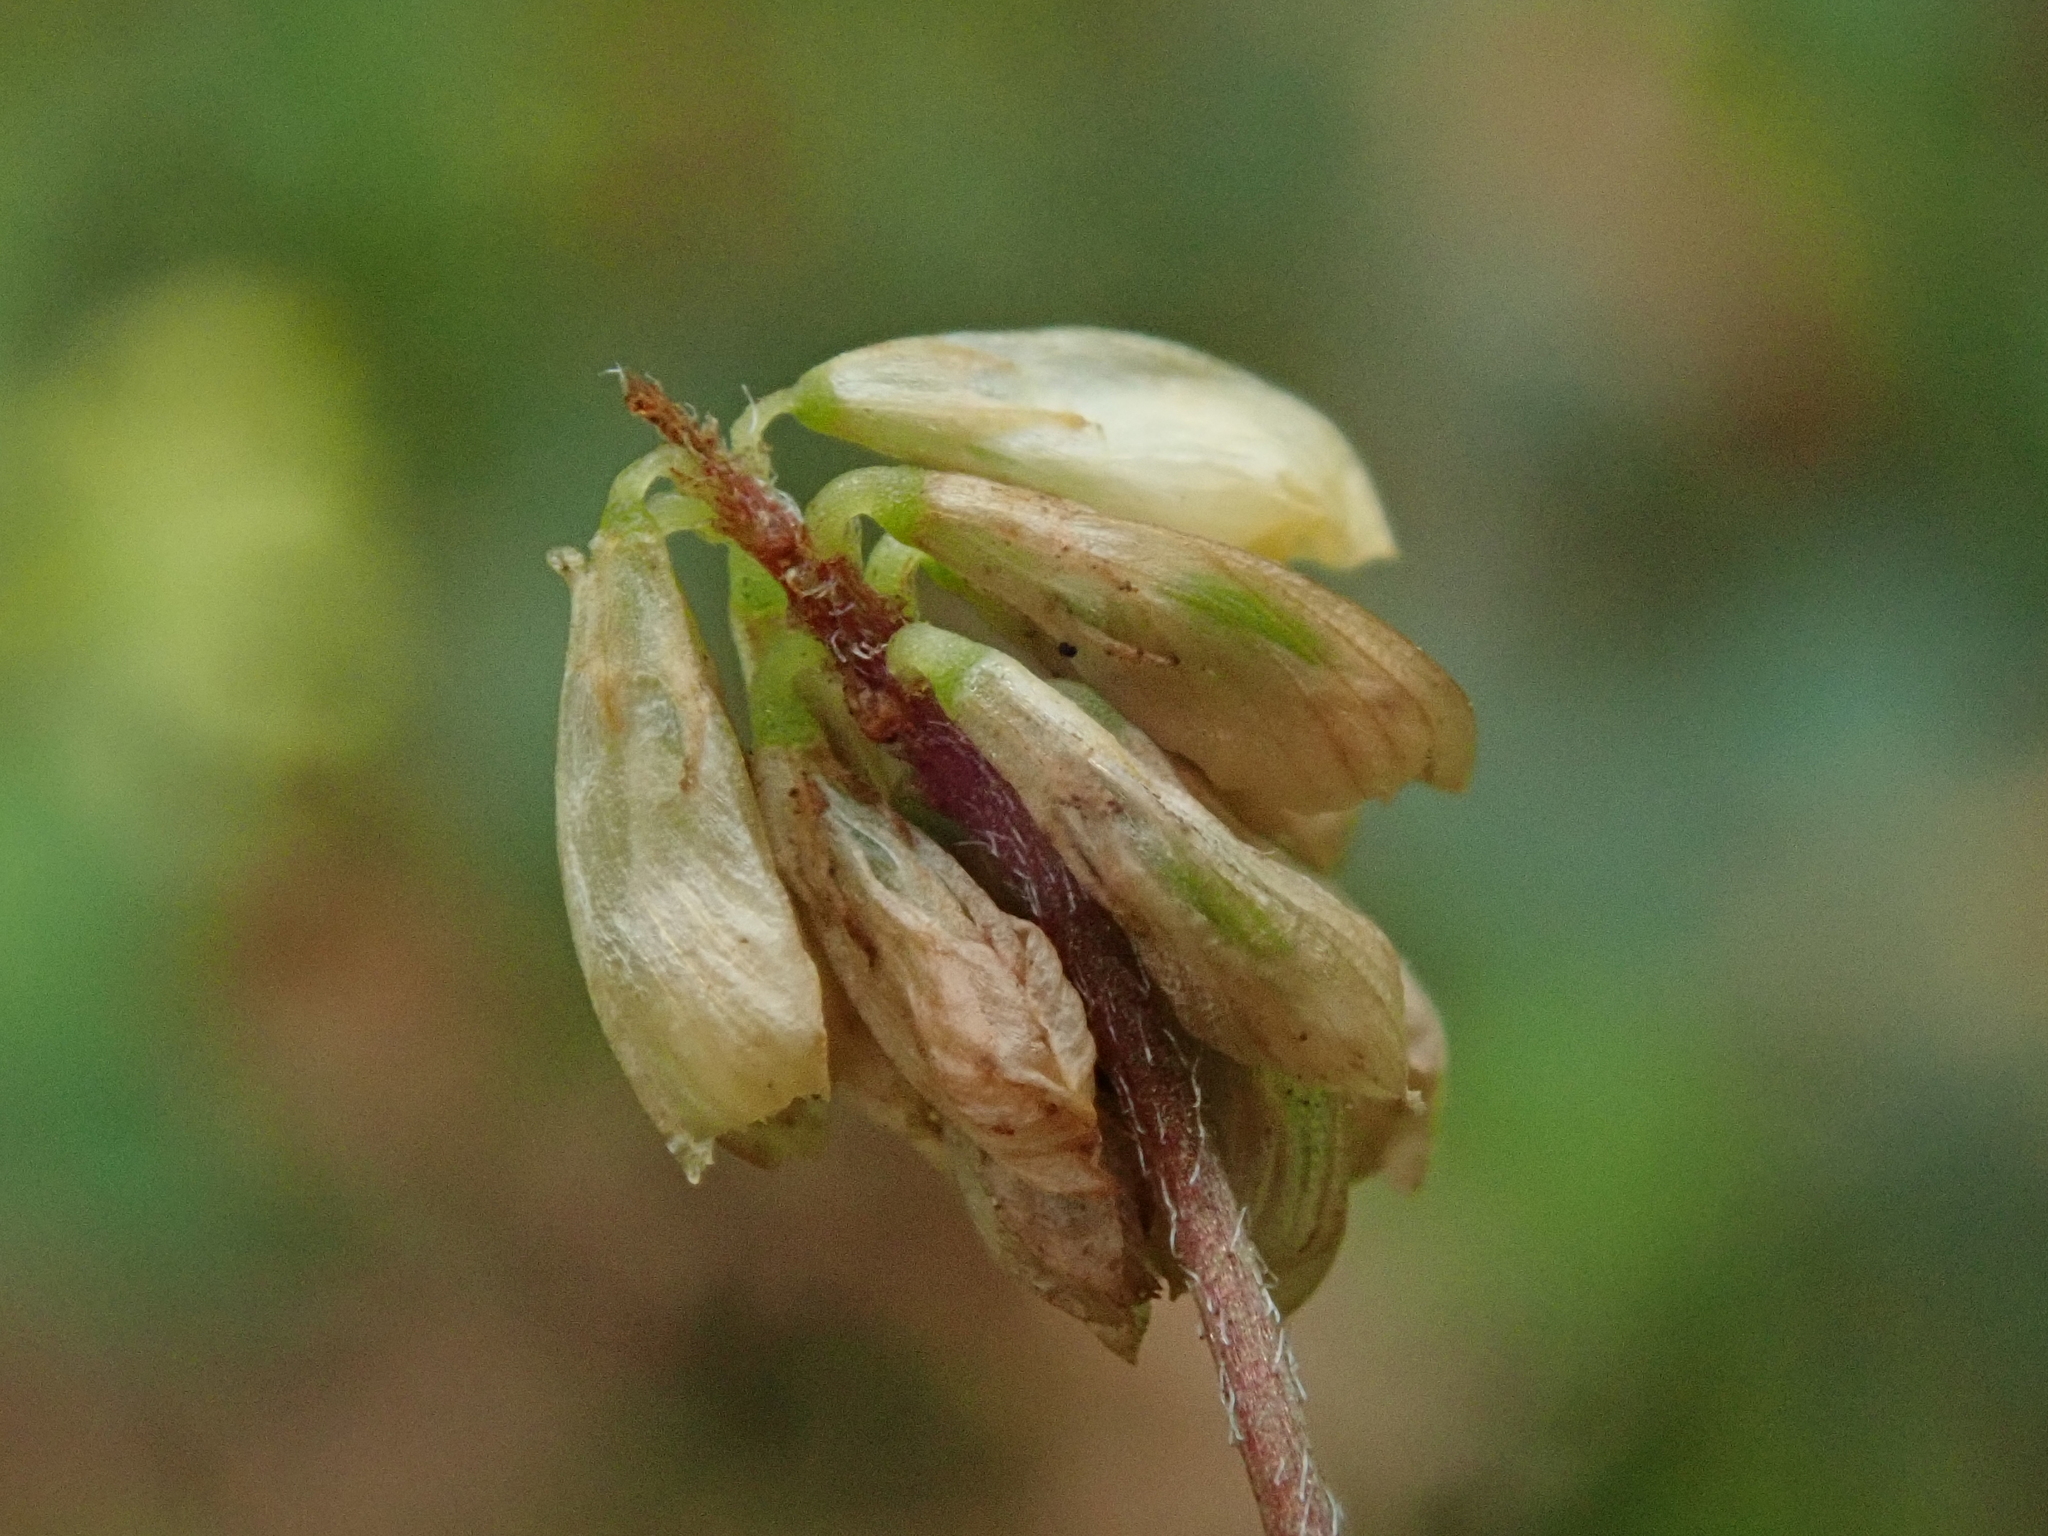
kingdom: Plantae
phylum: Tracheophyta
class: Magnoliopsida
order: Fabales
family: Fabaceae
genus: Trifolium
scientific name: Trifolium dubium
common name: Suckling clover
